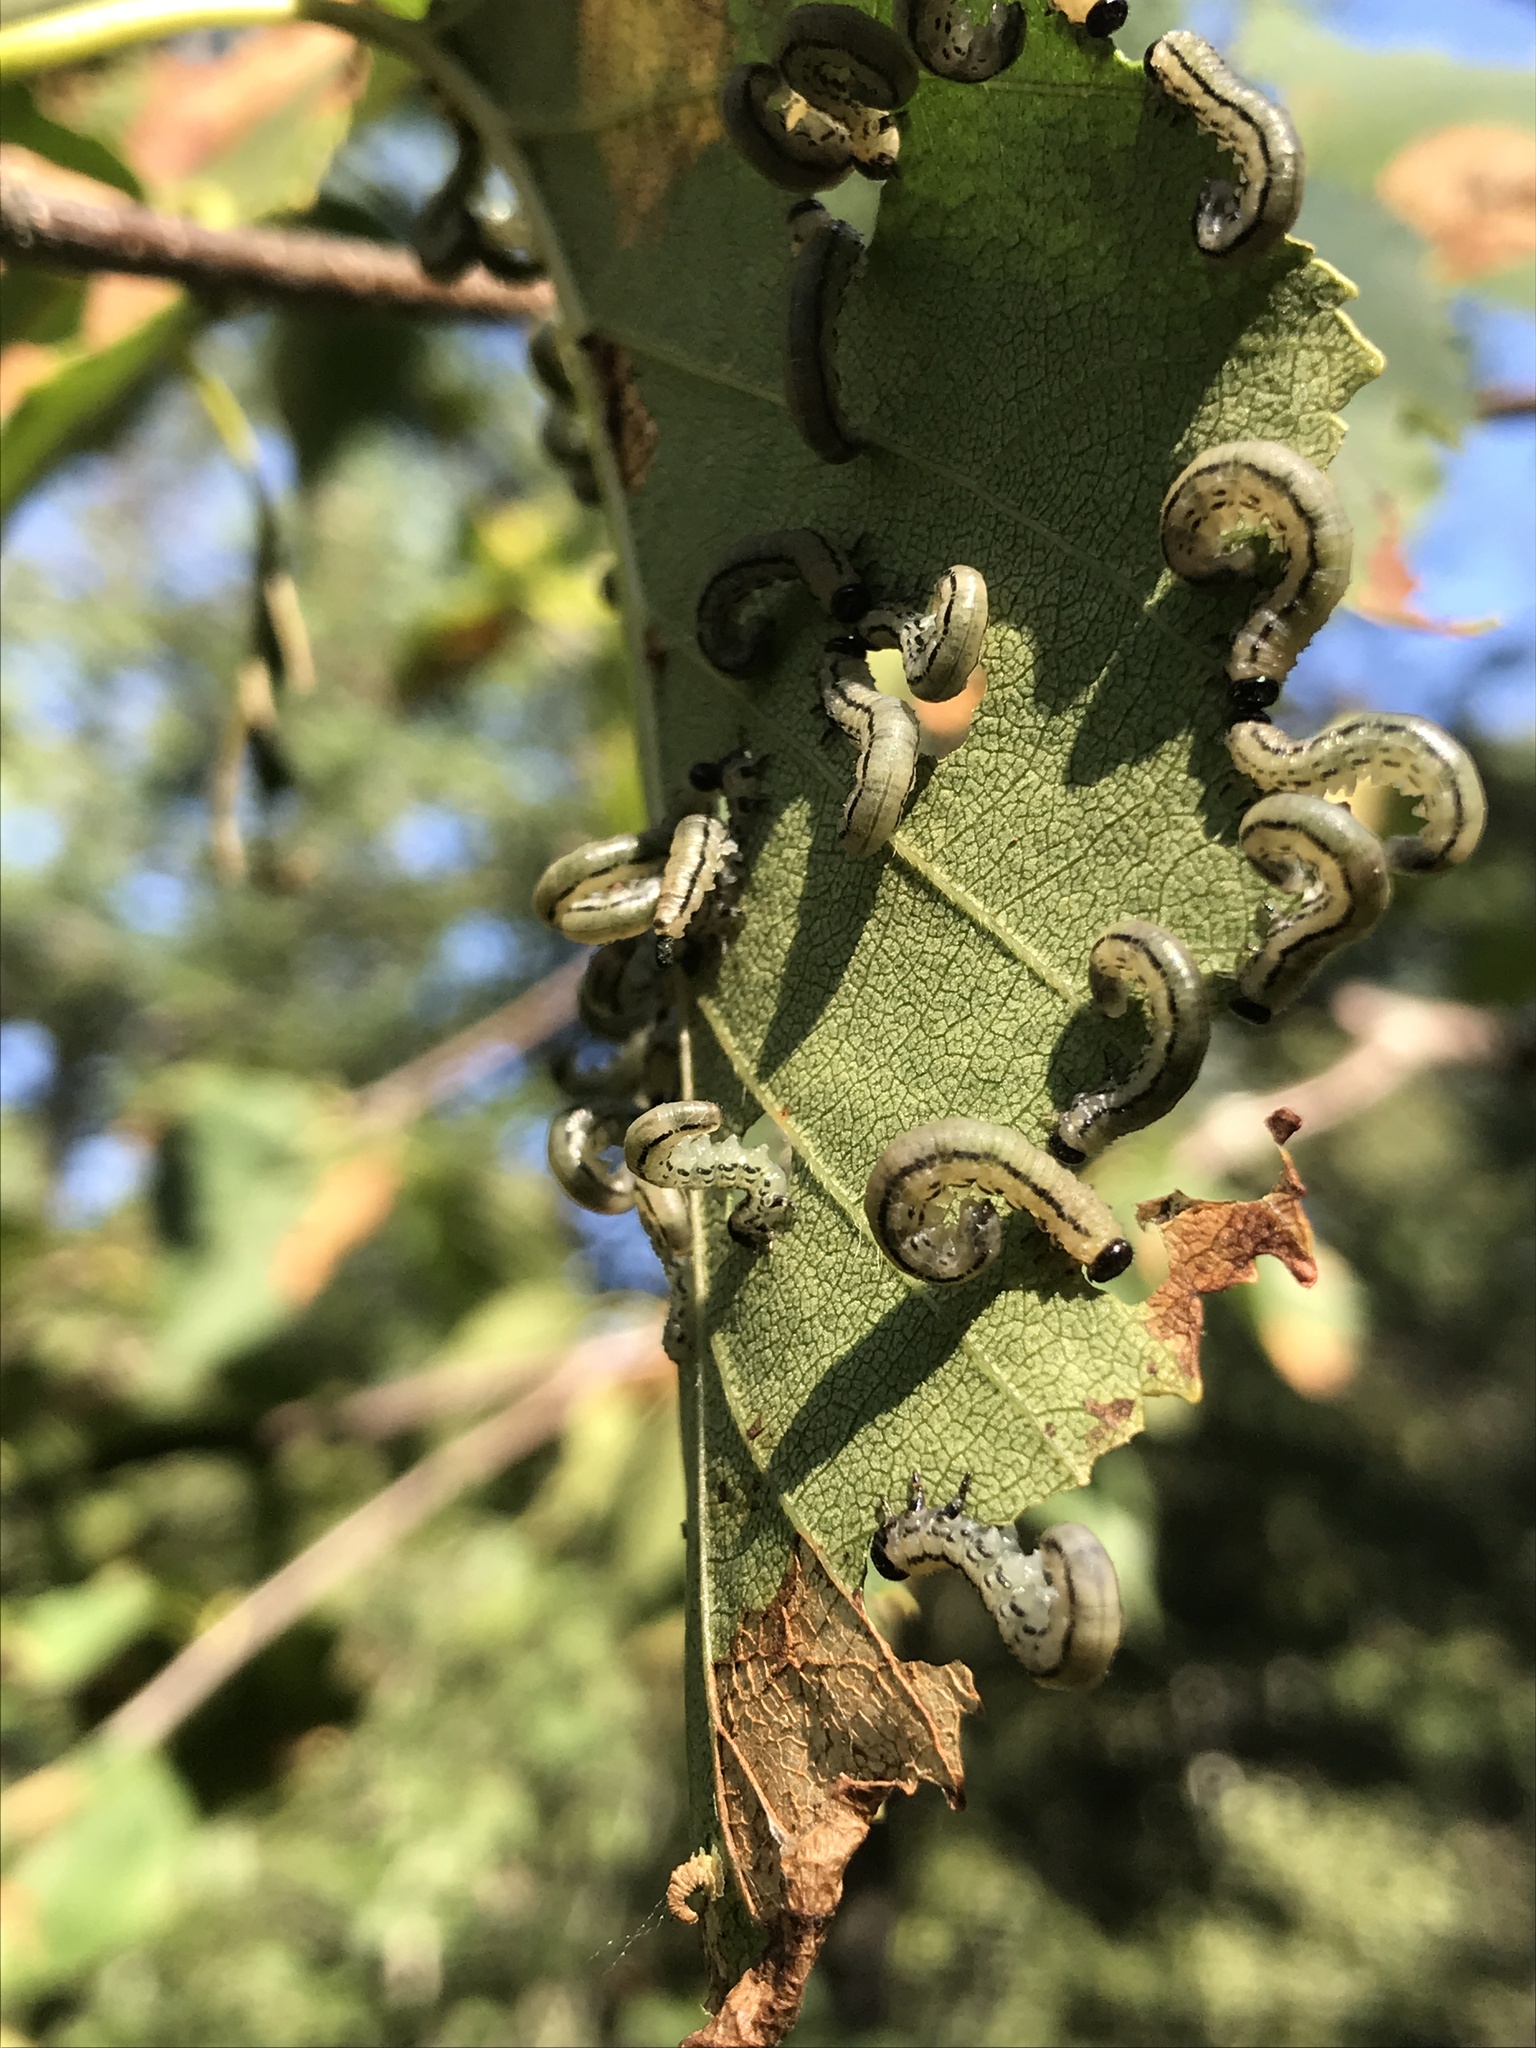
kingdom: Animalia
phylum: Arthropoda
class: Insecta
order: Hymenoptera
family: Tenthredinidae
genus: Hemichroa
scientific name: Hemichroa crocea
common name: Striped alder sawfly
